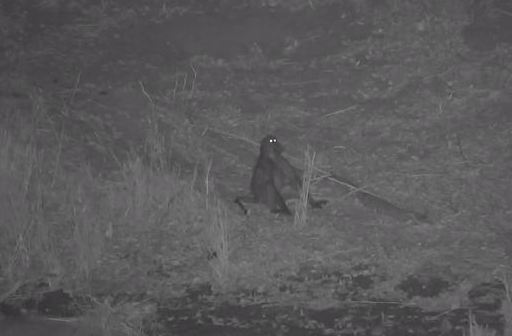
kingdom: Animalia
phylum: Chordata
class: Mammalia
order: Primates
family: Cercopithecidae
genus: Papio
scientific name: Papio ursinus
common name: Chacma baboon
